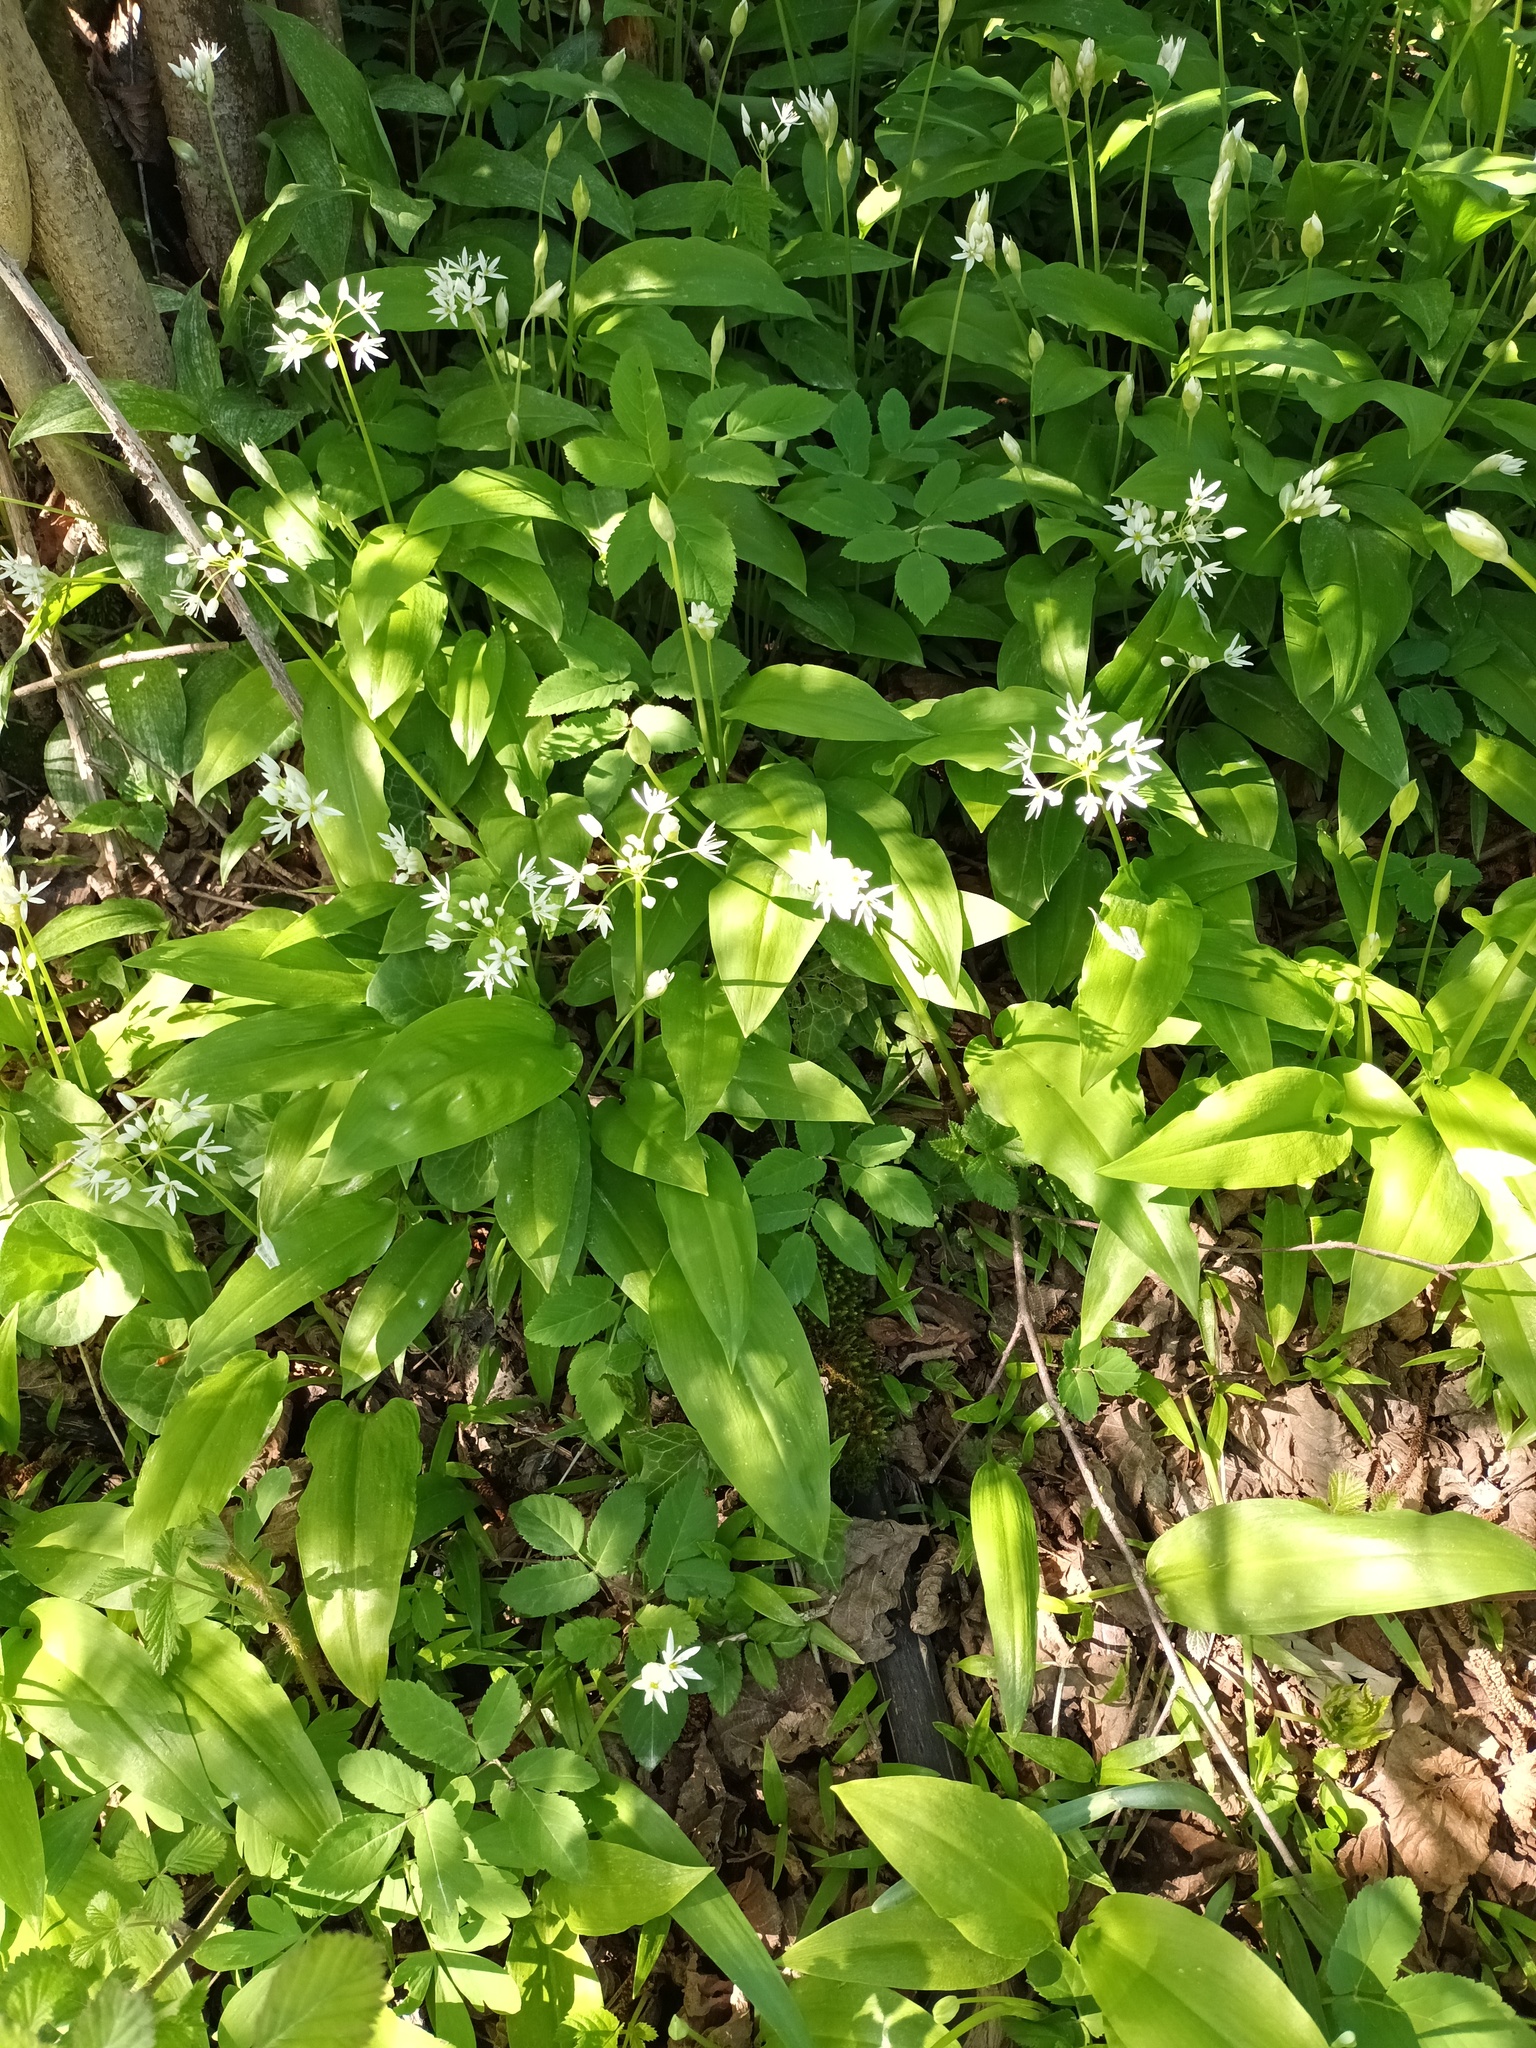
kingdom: Plantae
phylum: Tracheophyta
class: Liliopsida
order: Asparagales
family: Amaryllidaceae
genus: Allium
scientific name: Allium ursinum
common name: Ramsons
